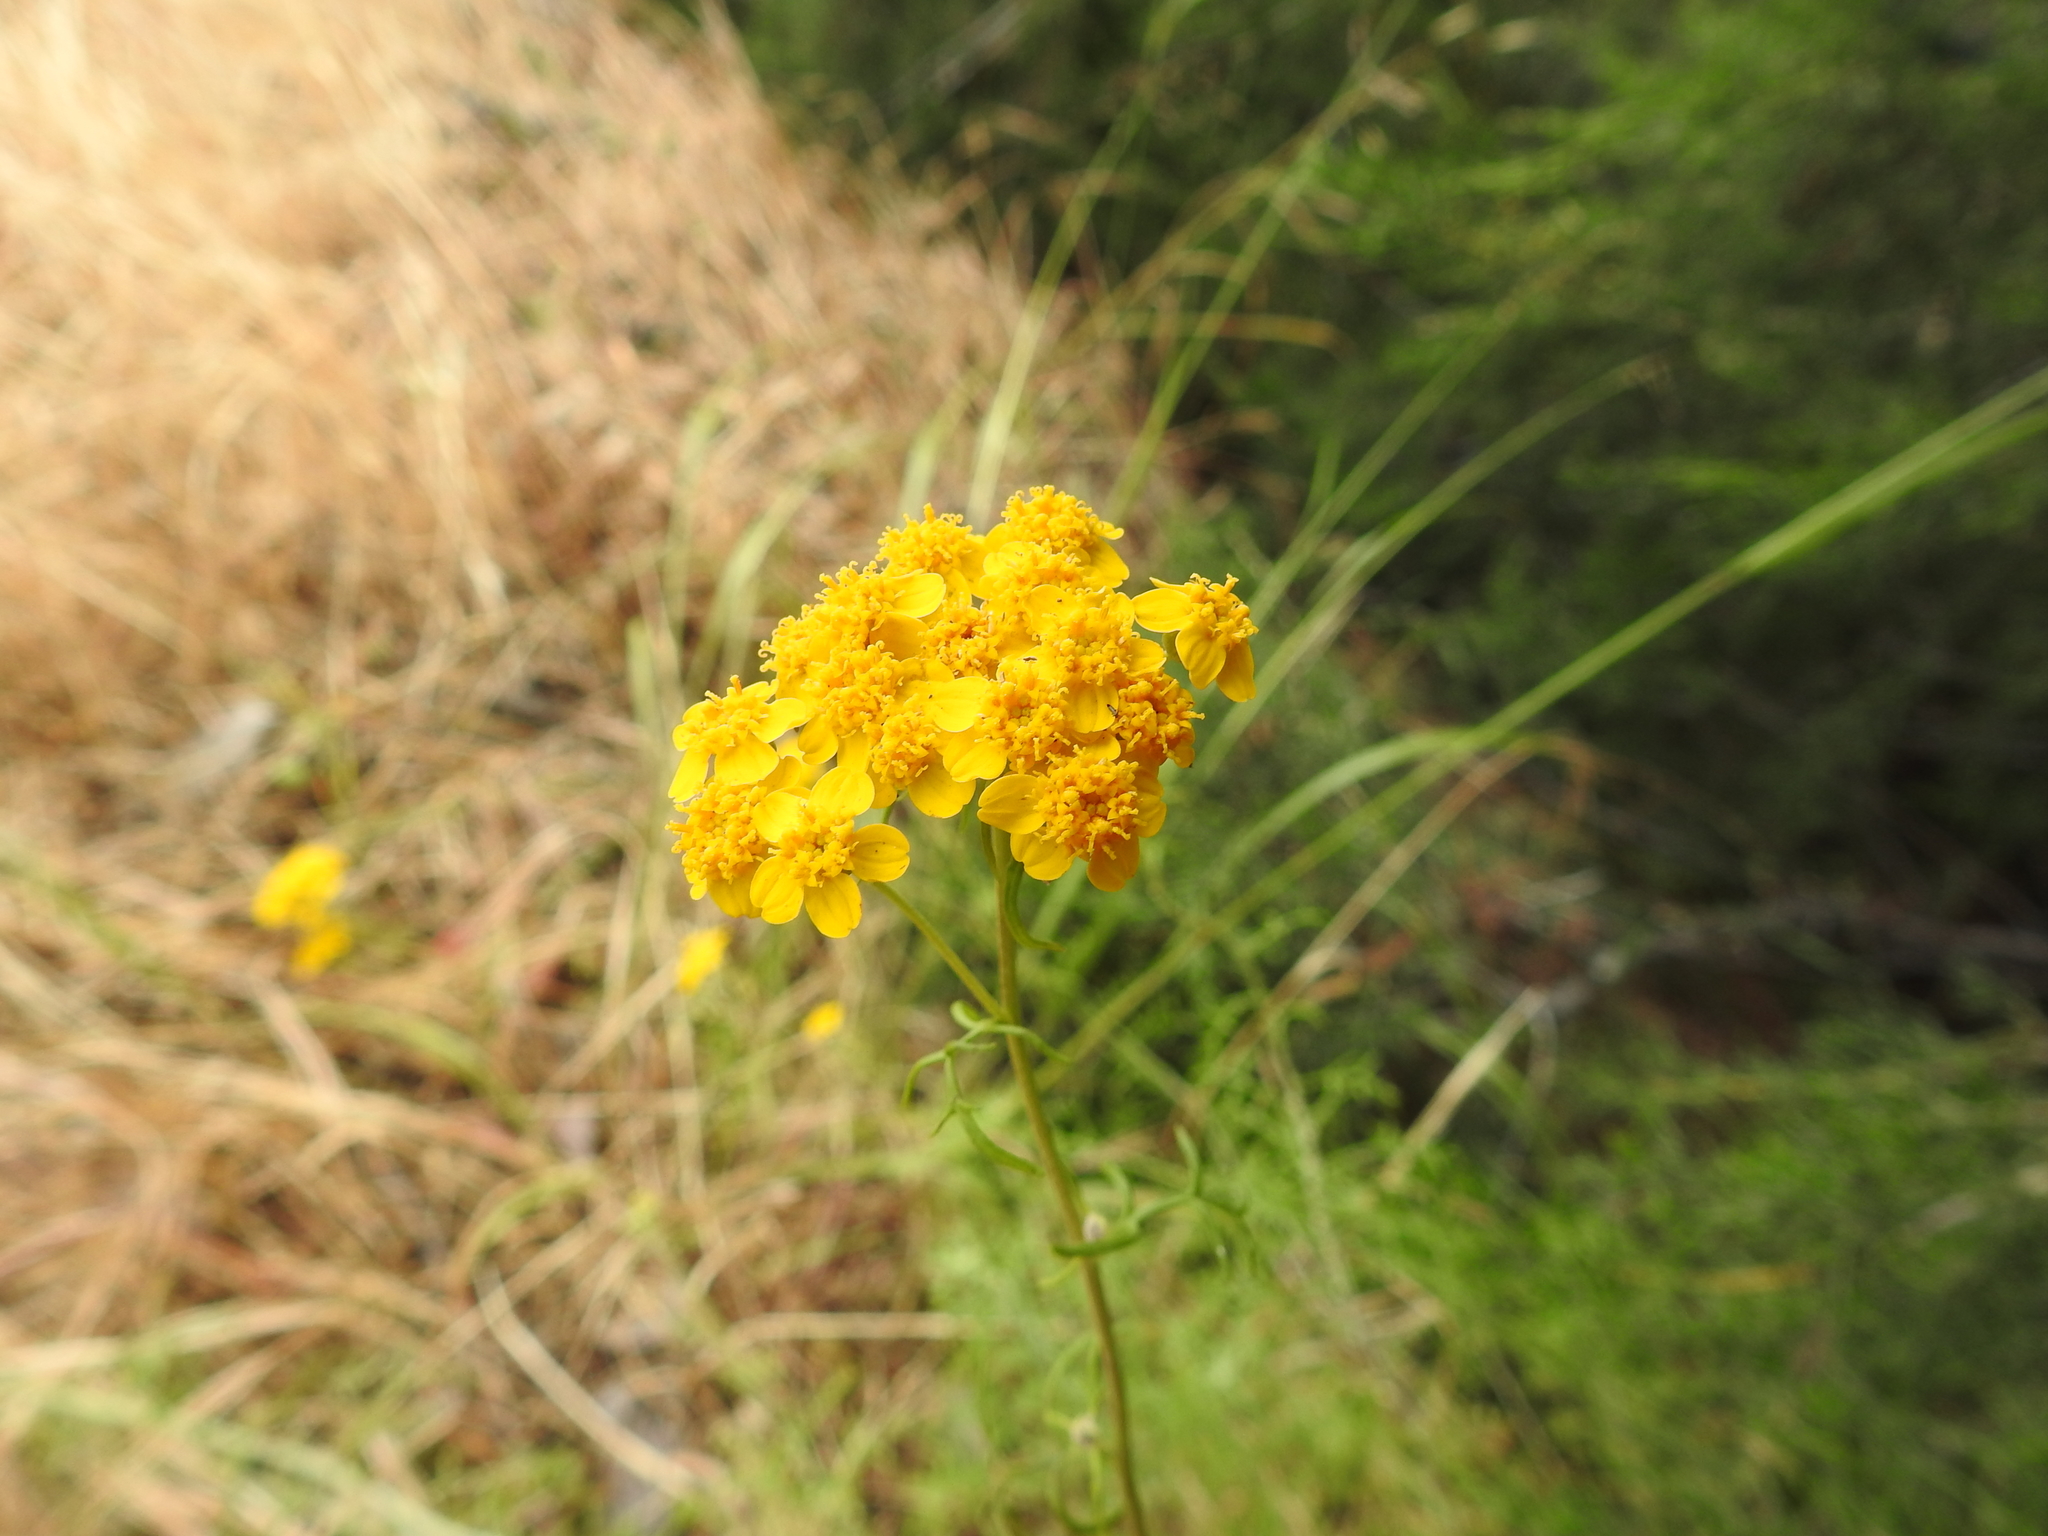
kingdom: Plantae
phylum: Tracheophyta
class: Magnoliopsida
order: Asterales
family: Asteraceae
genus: Eriophyllum
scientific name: Eriophyllum confertiflorum
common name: Golden-yarrow
